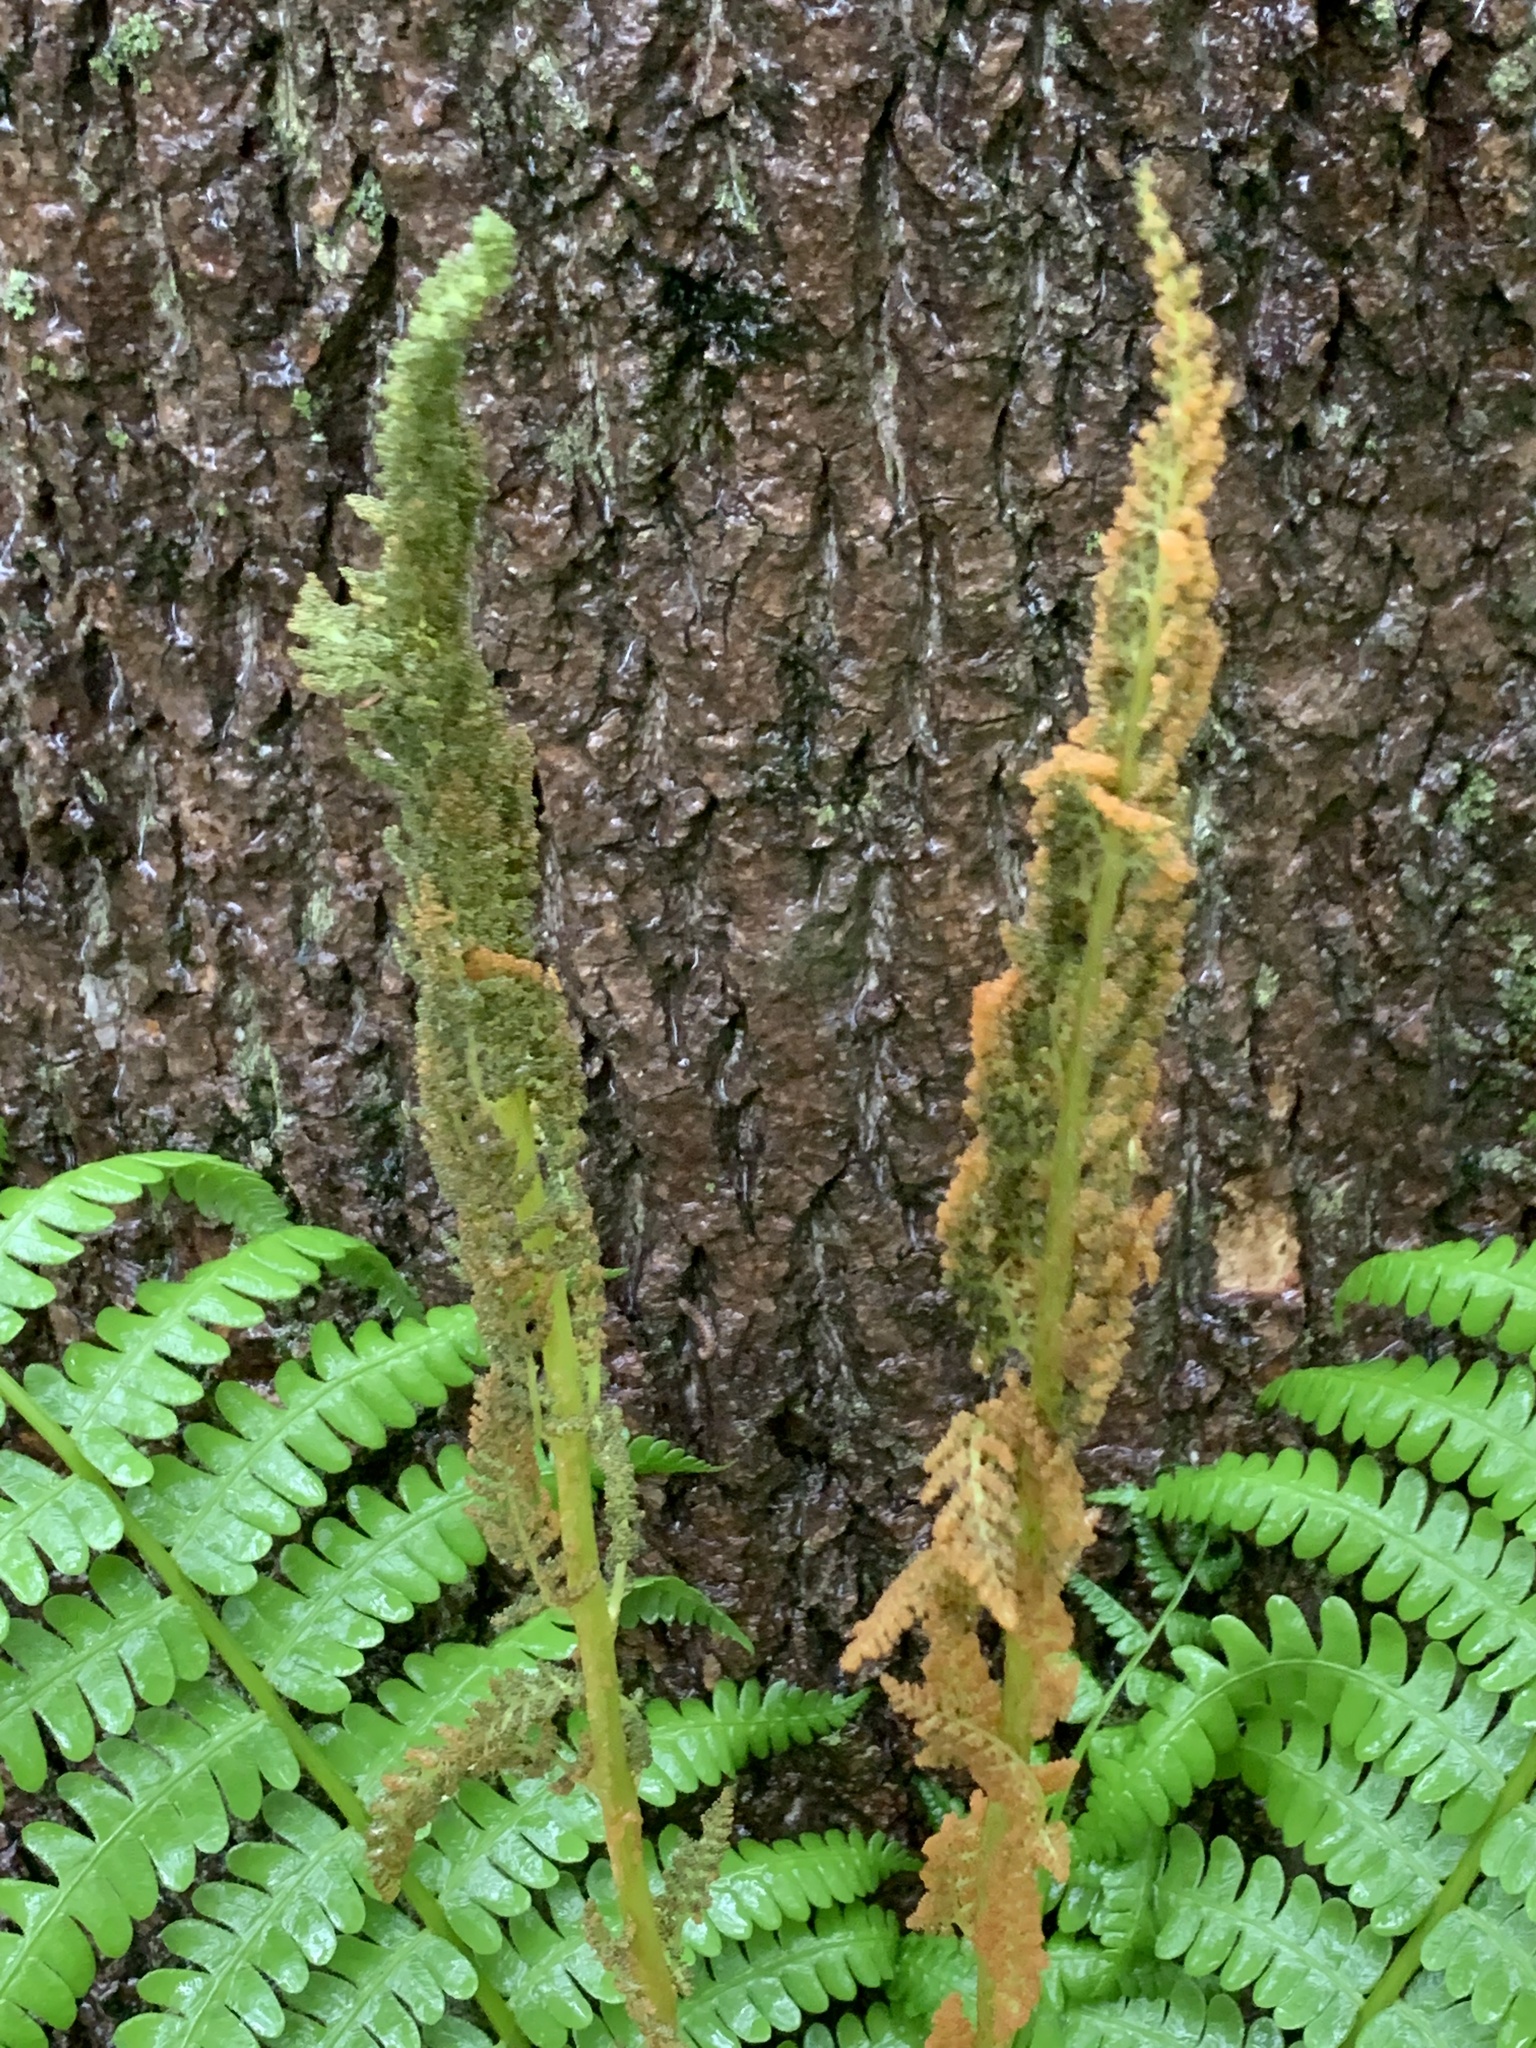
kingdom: Plantae
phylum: Tracheophyta
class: Polypodiopsida
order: Osmundales
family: Osmundaceae
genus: Osmundastrum
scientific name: Osmundastrum cinnamomeum
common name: Cinnamon fern
